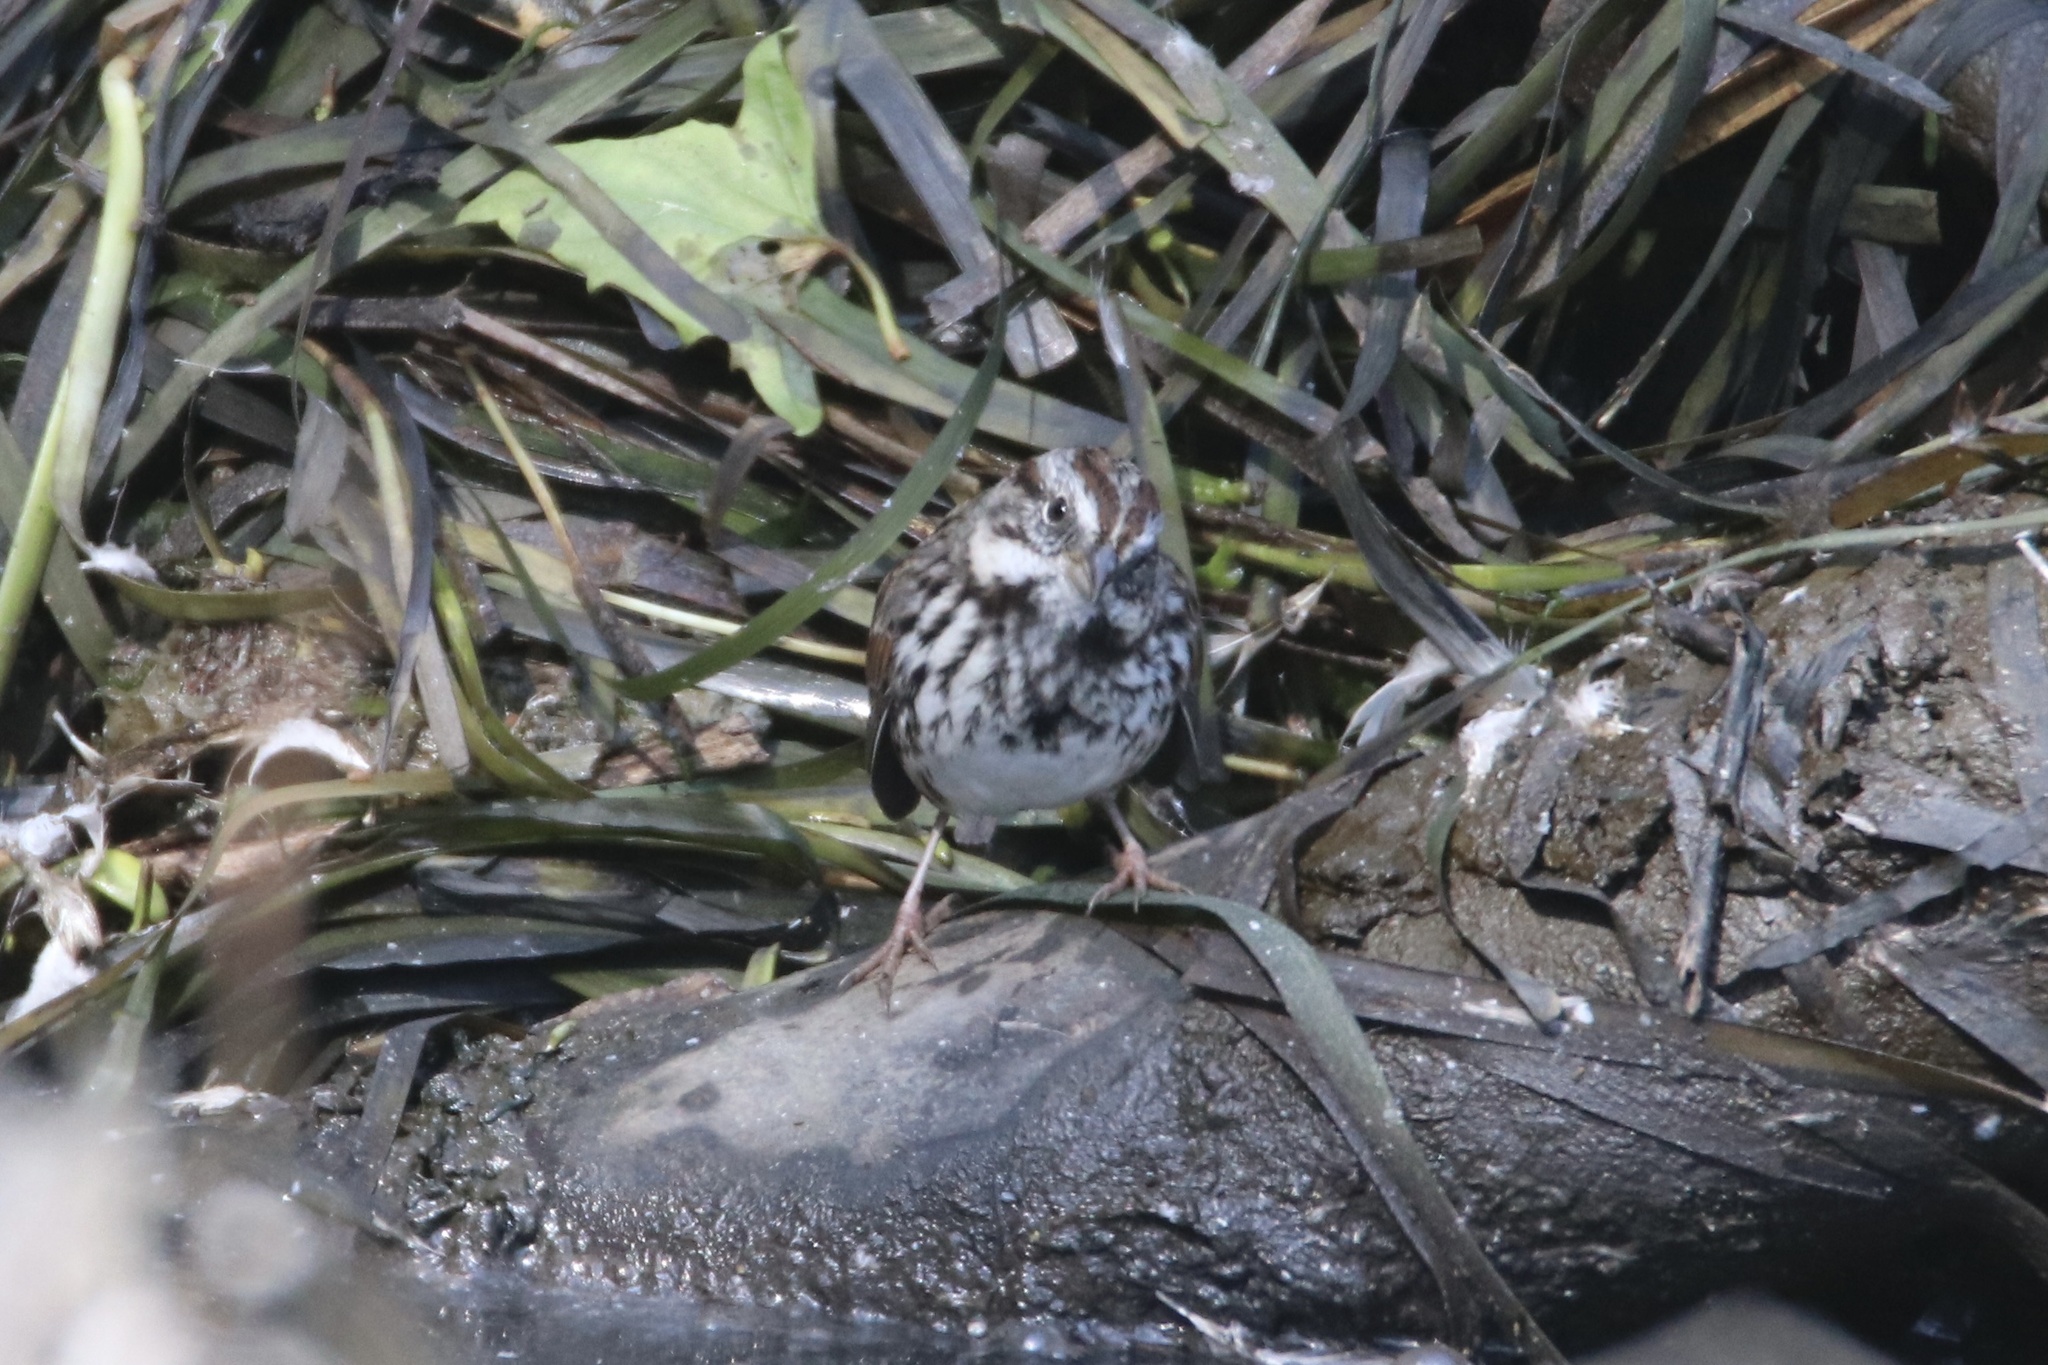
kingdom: Animalia
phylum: Chordata
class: Aves
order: Passeriformes
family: Passerellidae
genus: Melospiza
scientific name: Melospiza melodia
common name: Song sparrow
